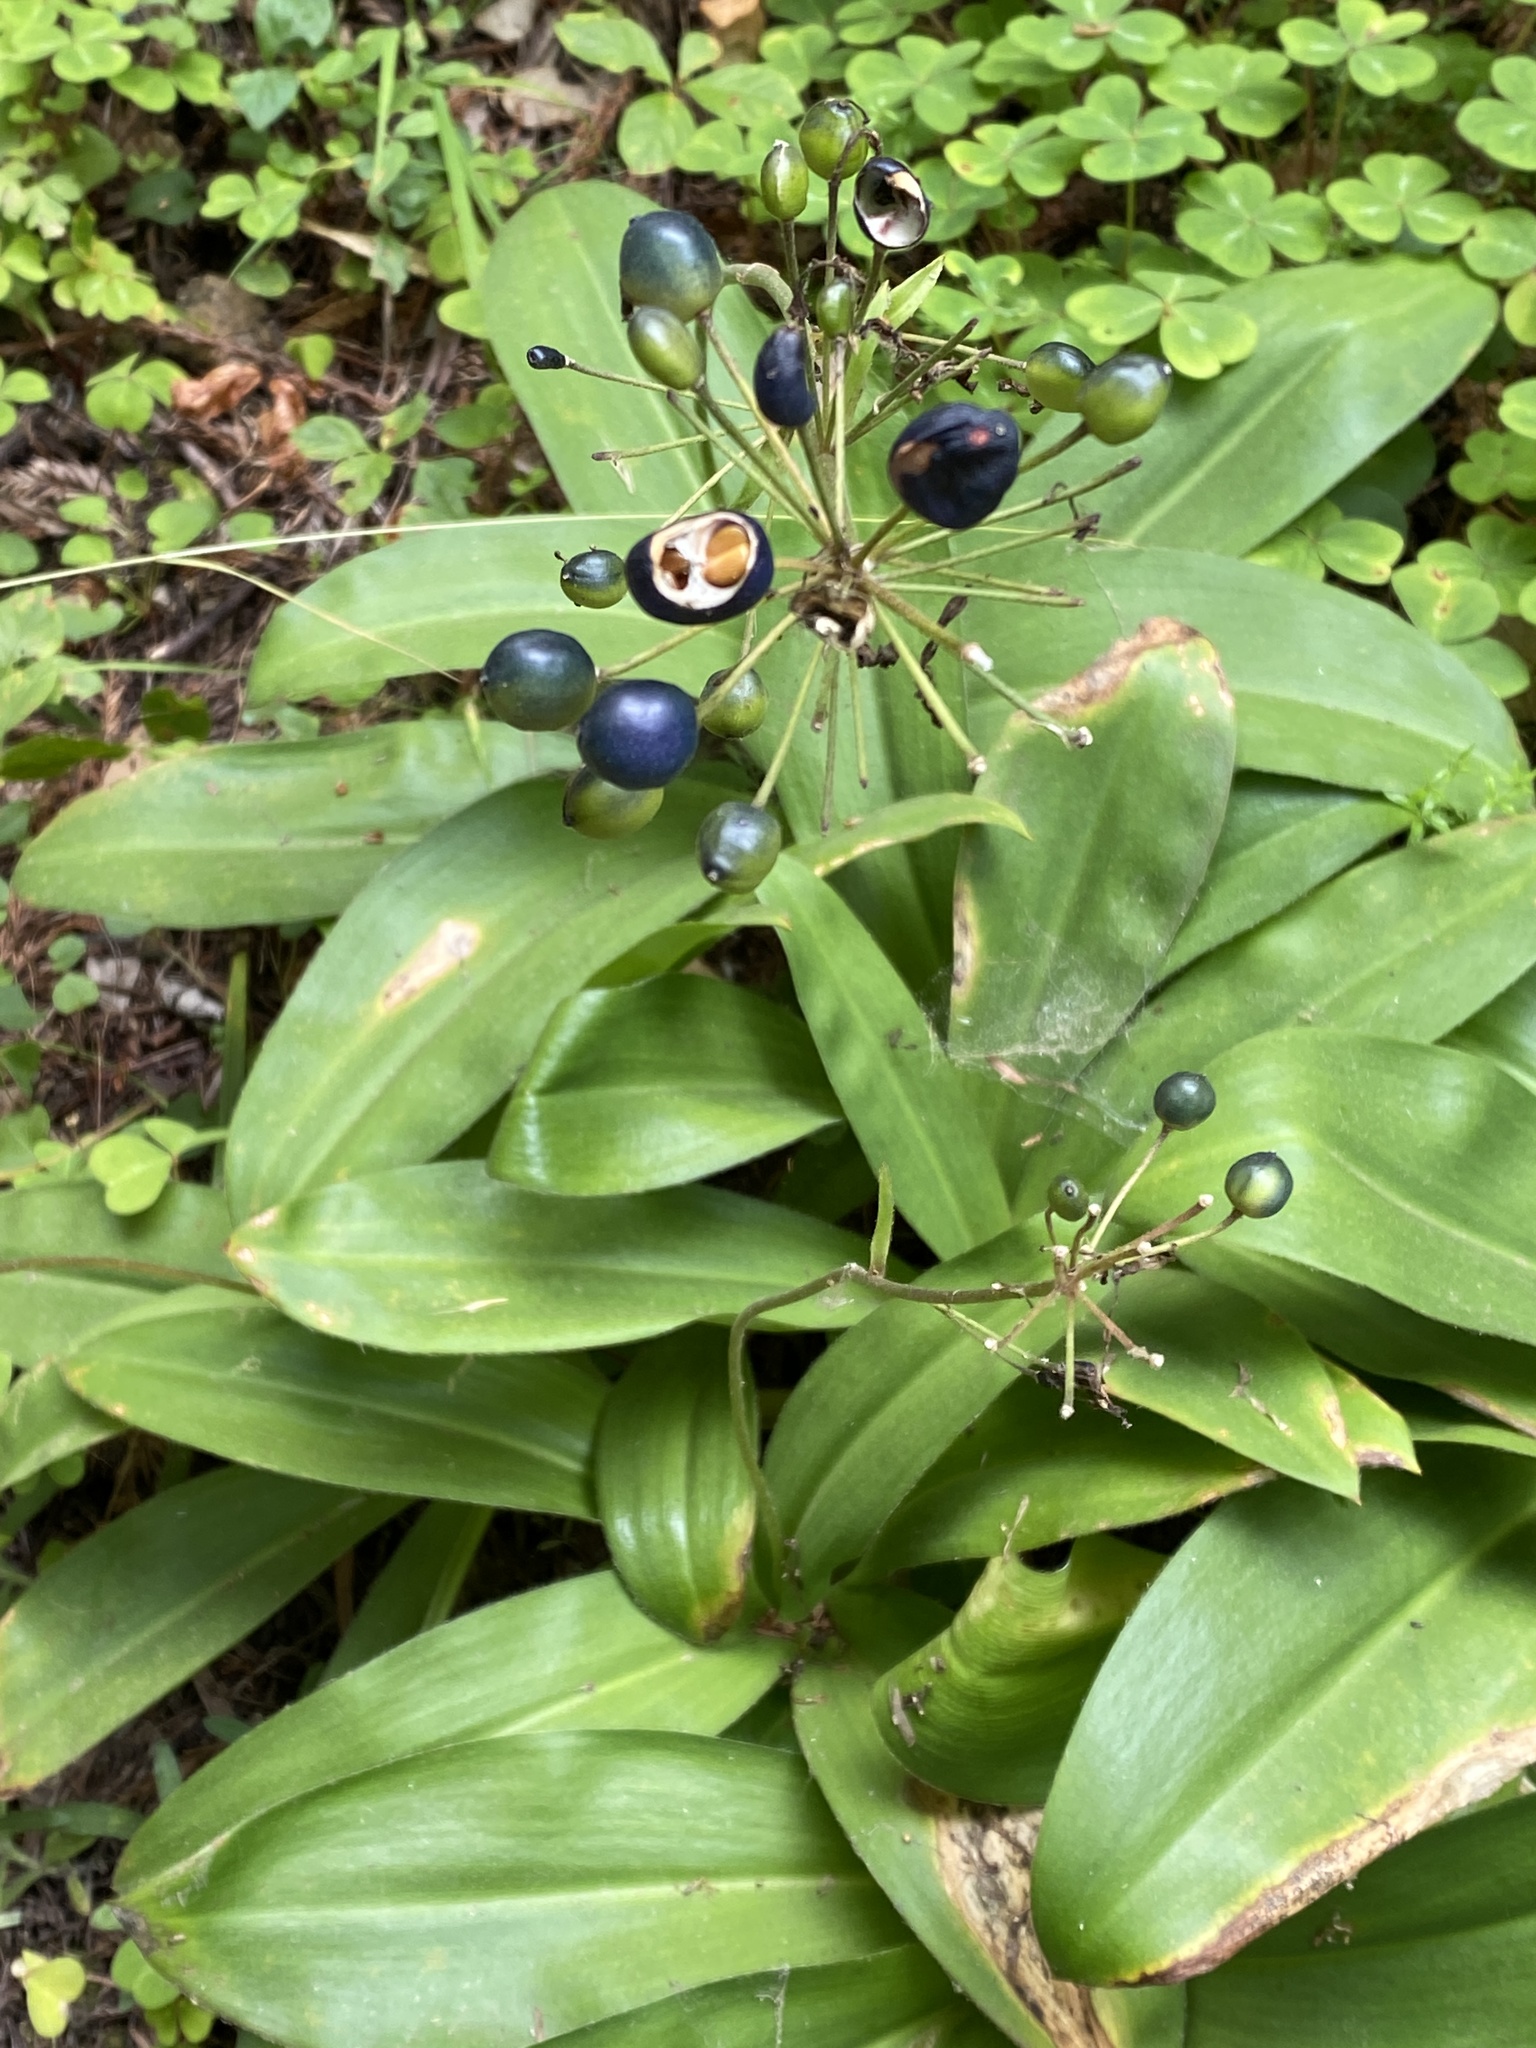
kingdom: Plantae
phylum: Tracheophyta
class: Liliopsida
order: Liliales
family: Liliaceae
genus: Clintonia
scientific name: Clintonia andrewsiana
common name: Red clintonia
